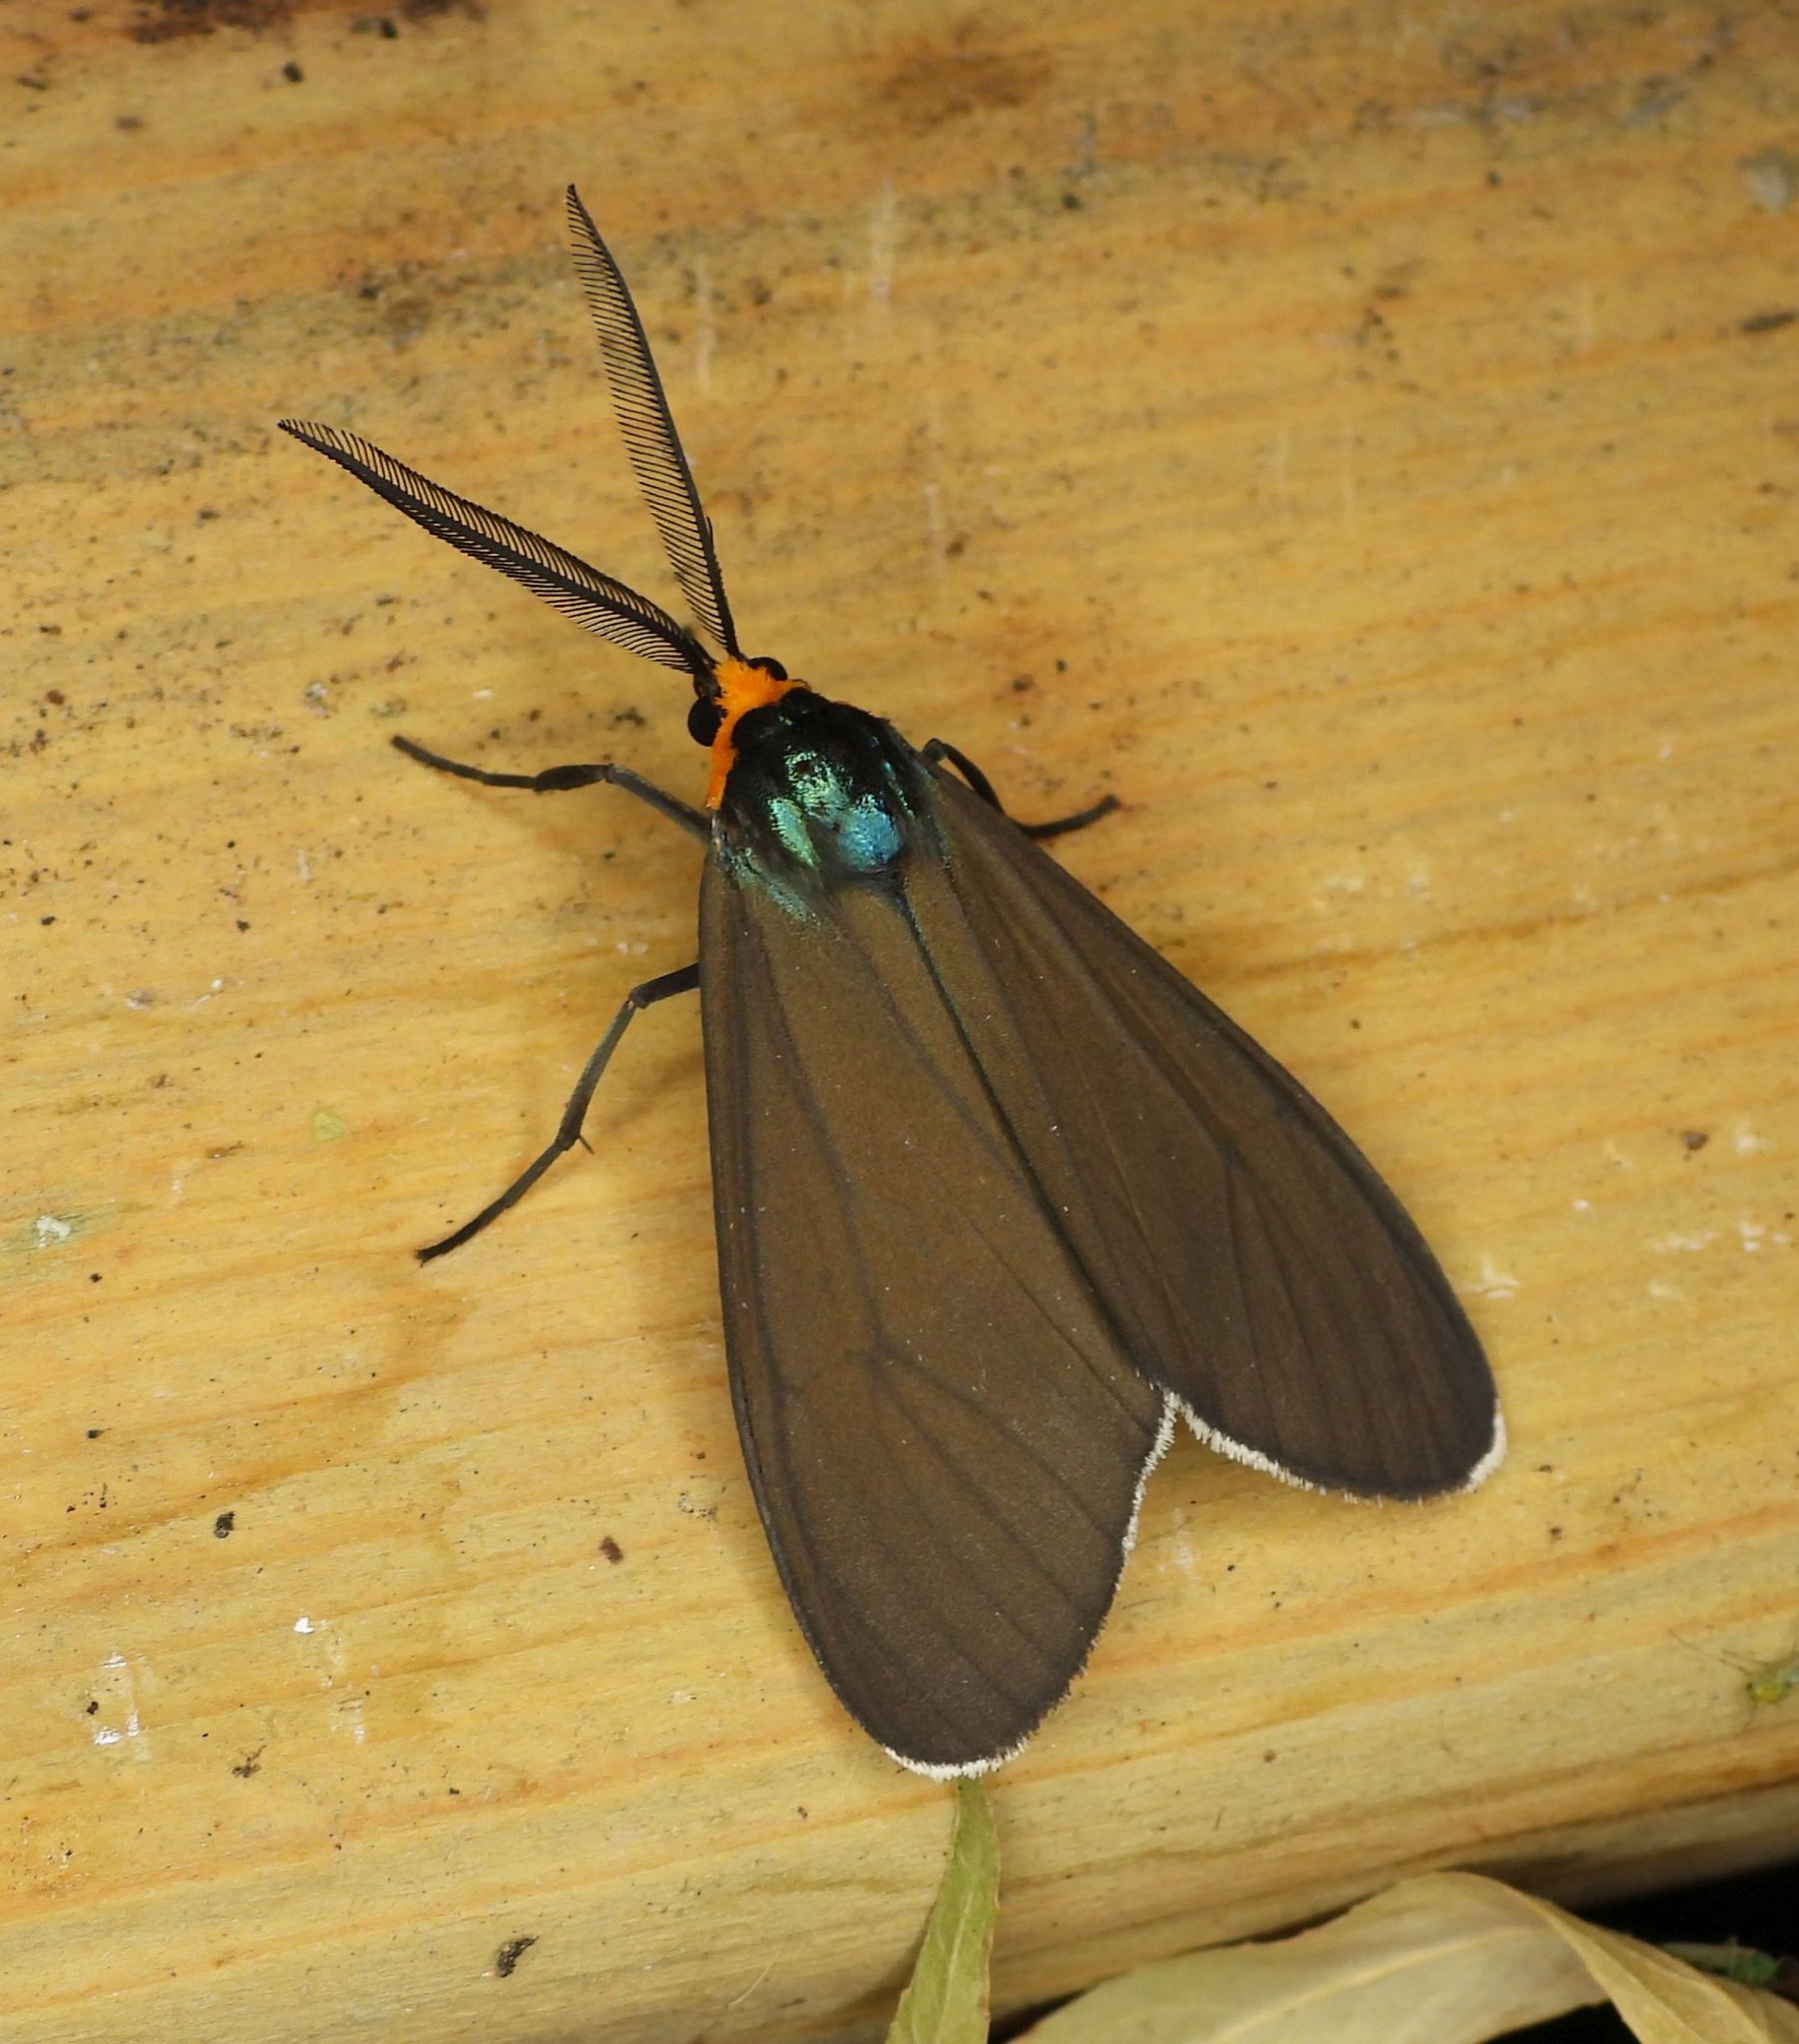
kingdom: Animalia
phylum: Arthropoda
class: Insecta
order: Lepidoptera
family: Erebidae
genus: Ctenucha
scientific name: Ctenucha virginica
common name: Virginia ctenucha moth
